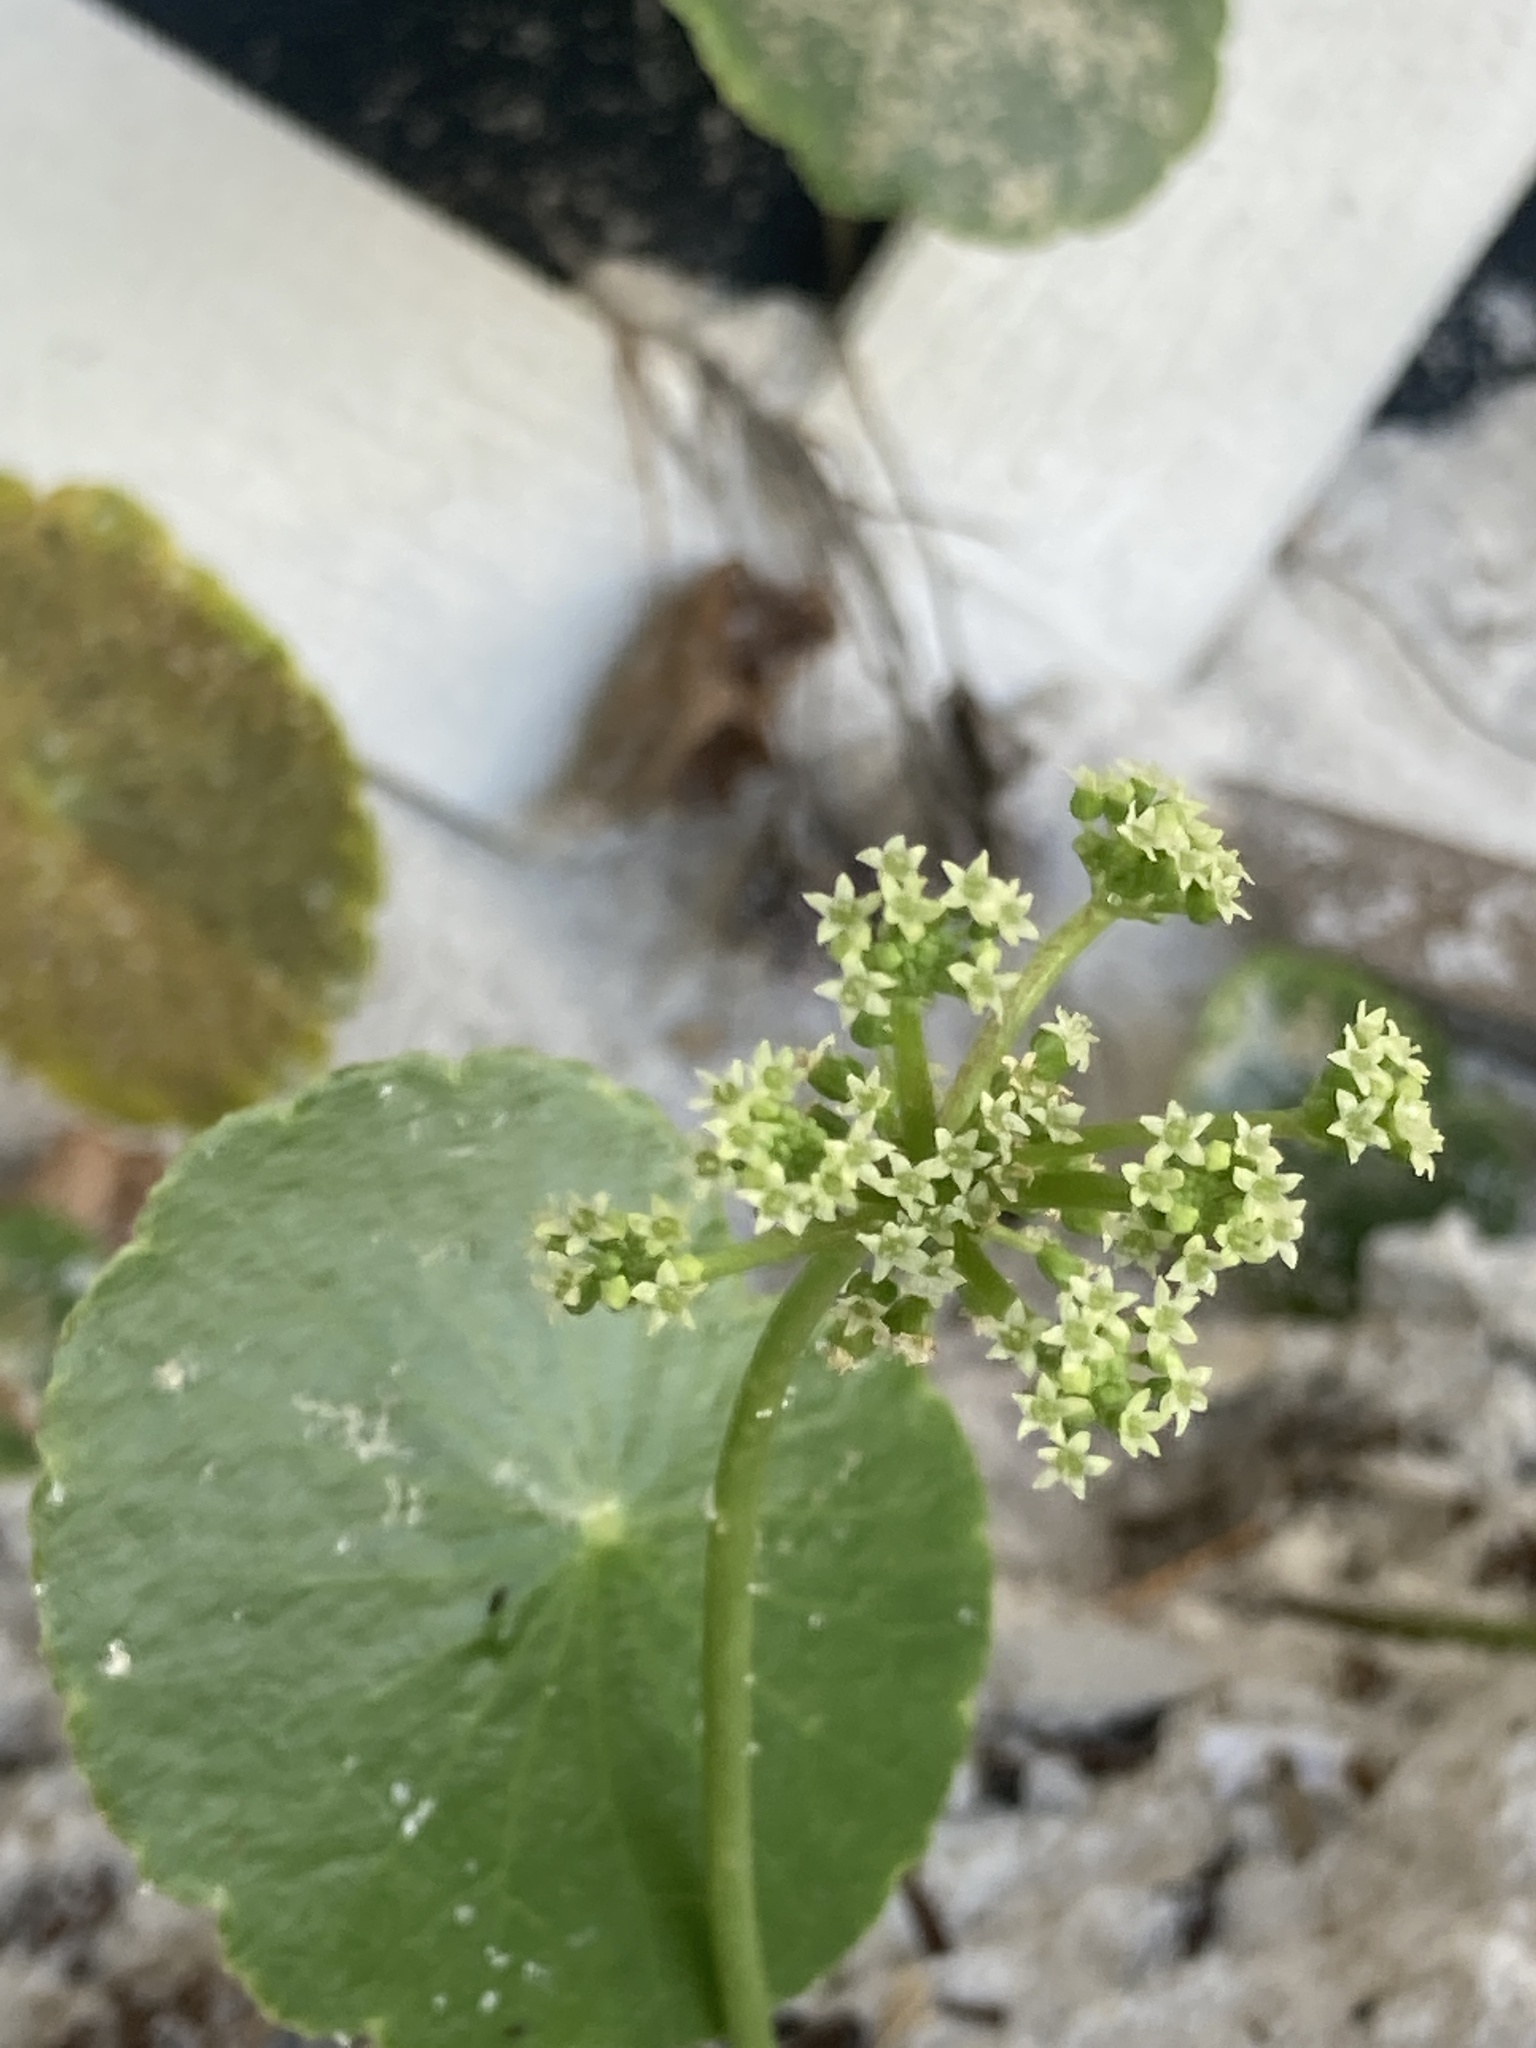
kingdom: Plantae
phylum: Tracheophyta
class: Magnoliopsida
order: Apiales
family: Araliaceae
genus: Hydrocotyle
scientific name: Hydrocotyle bonariensis
